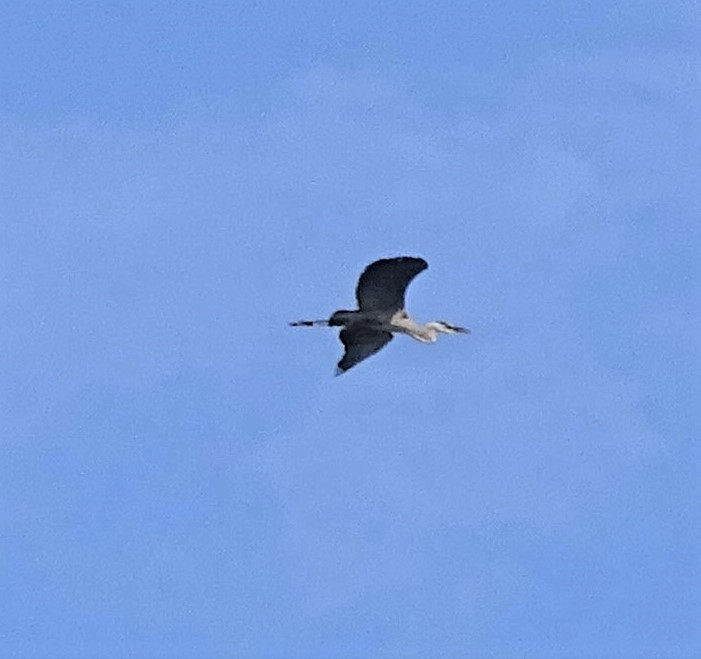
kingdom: Animalia
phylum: Chordata
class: Aves
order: Pelecaniformes
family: Ardeidae
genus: Ardea
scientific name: Ardea herodias
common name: Great blue heron
